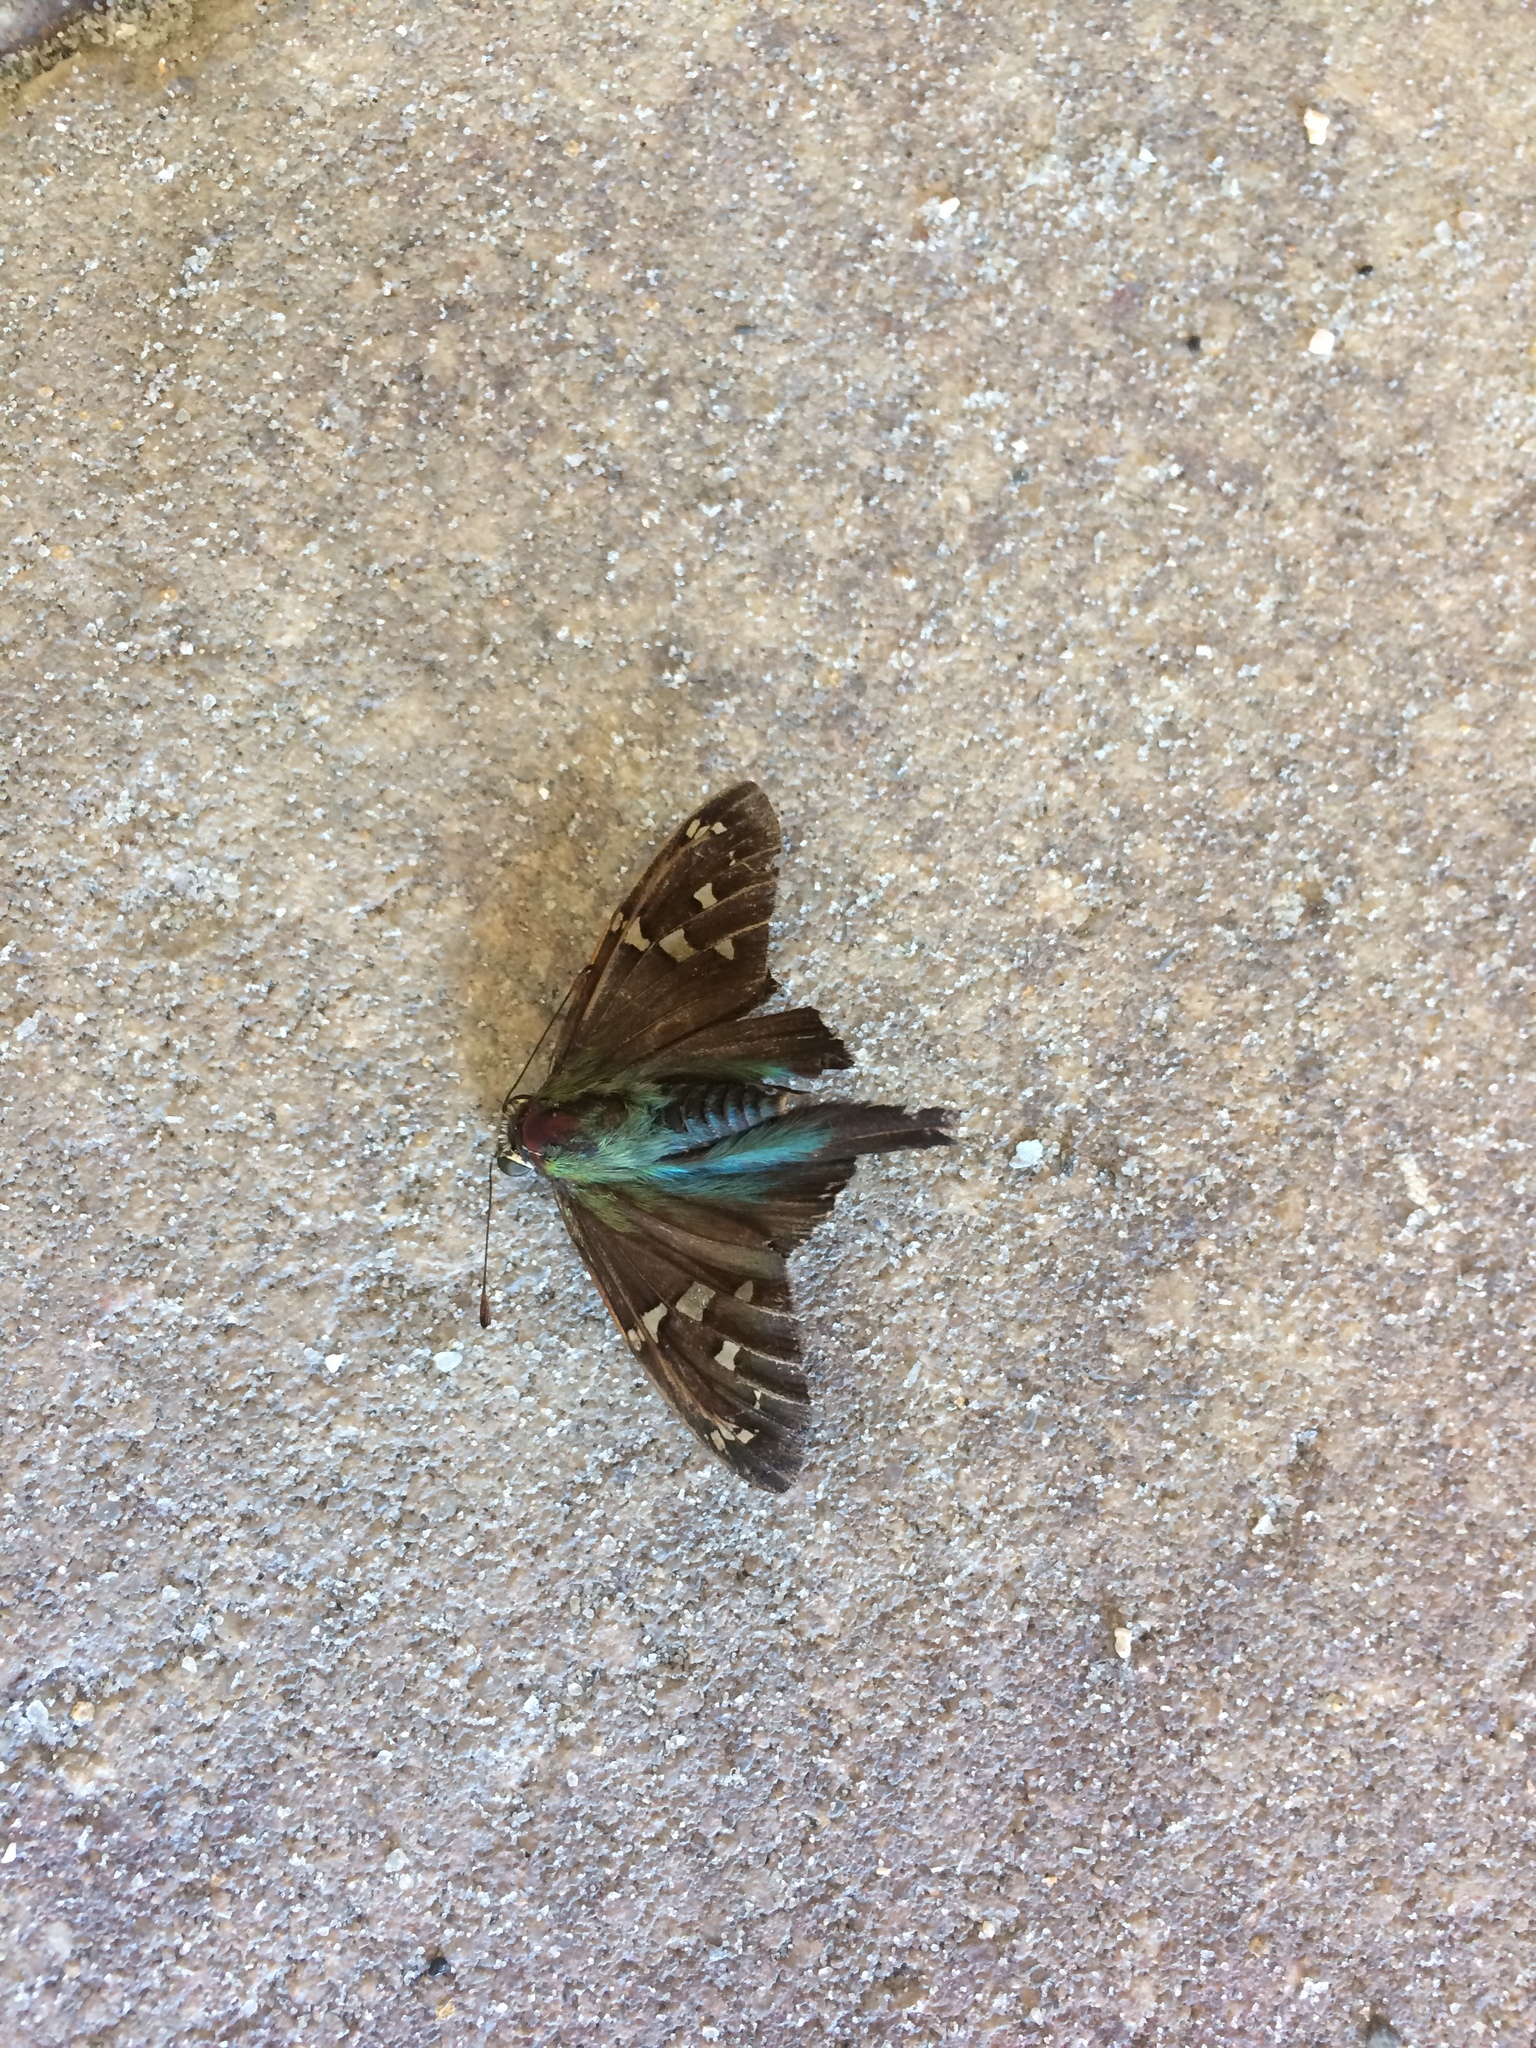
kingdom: Animalia
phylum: Arthropoda
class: Insecta
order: Lepidoptera
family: Hesperiidae
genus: Urbanus
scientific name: Urbanus proteus
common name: Long-tailed skipper
